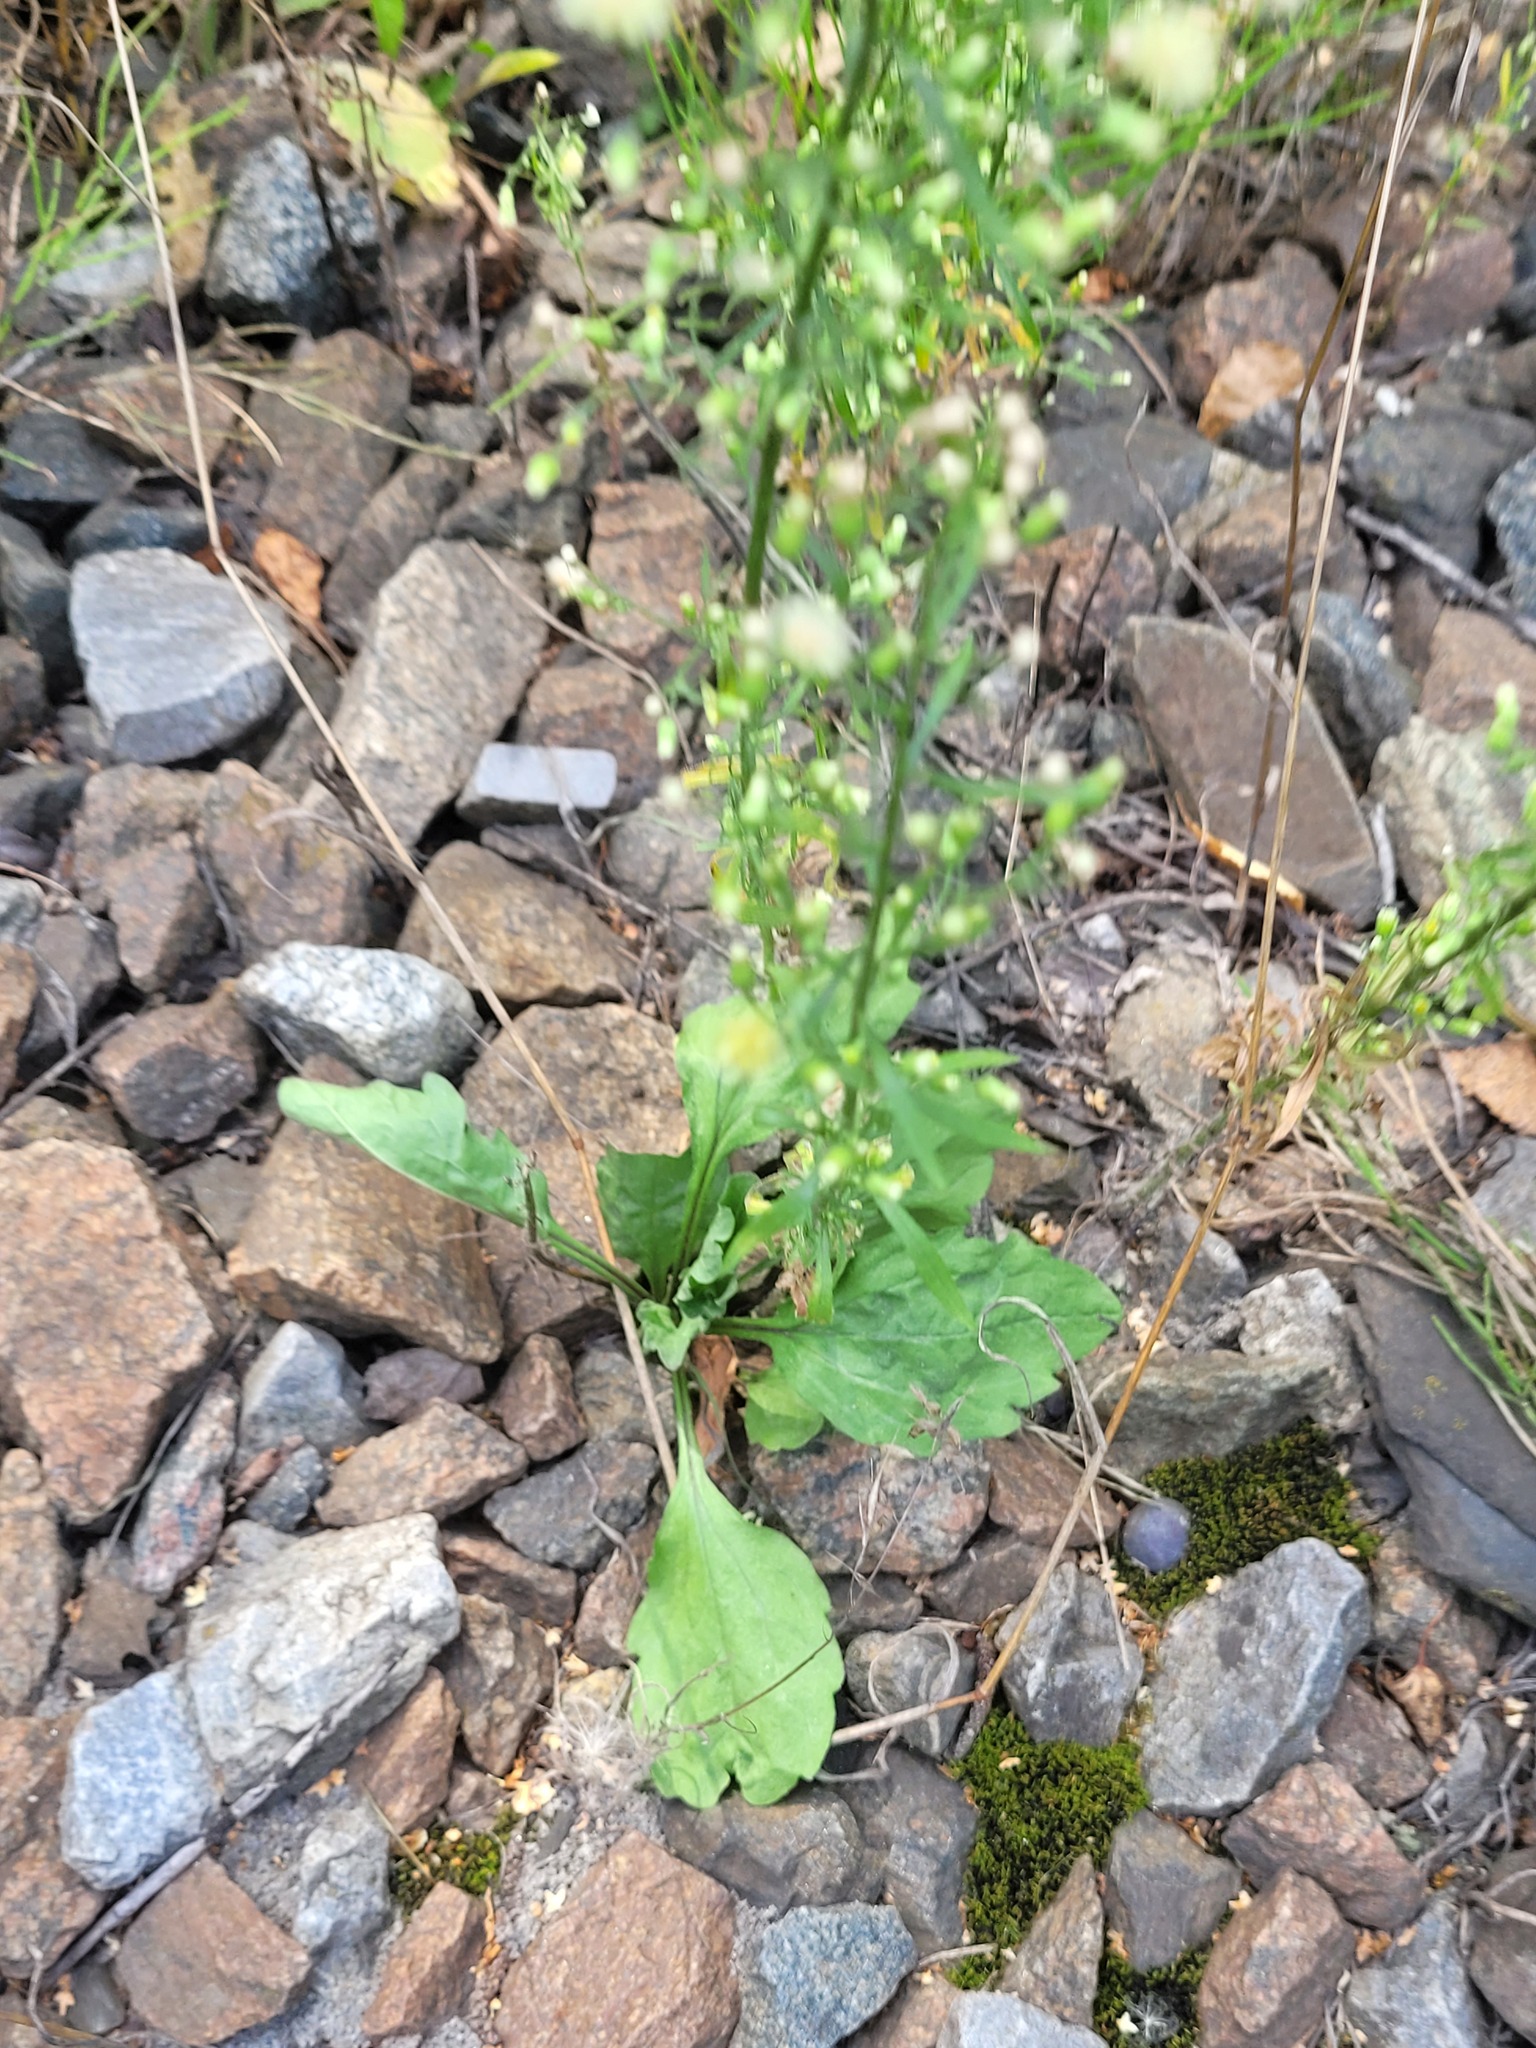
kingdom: Plantae
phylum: Tracheophyta
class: Magnoliopsida
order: Asterales
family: Asteraceae
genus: Erigeron
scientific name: Erigeron canadensis
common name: Canadian fleabane
